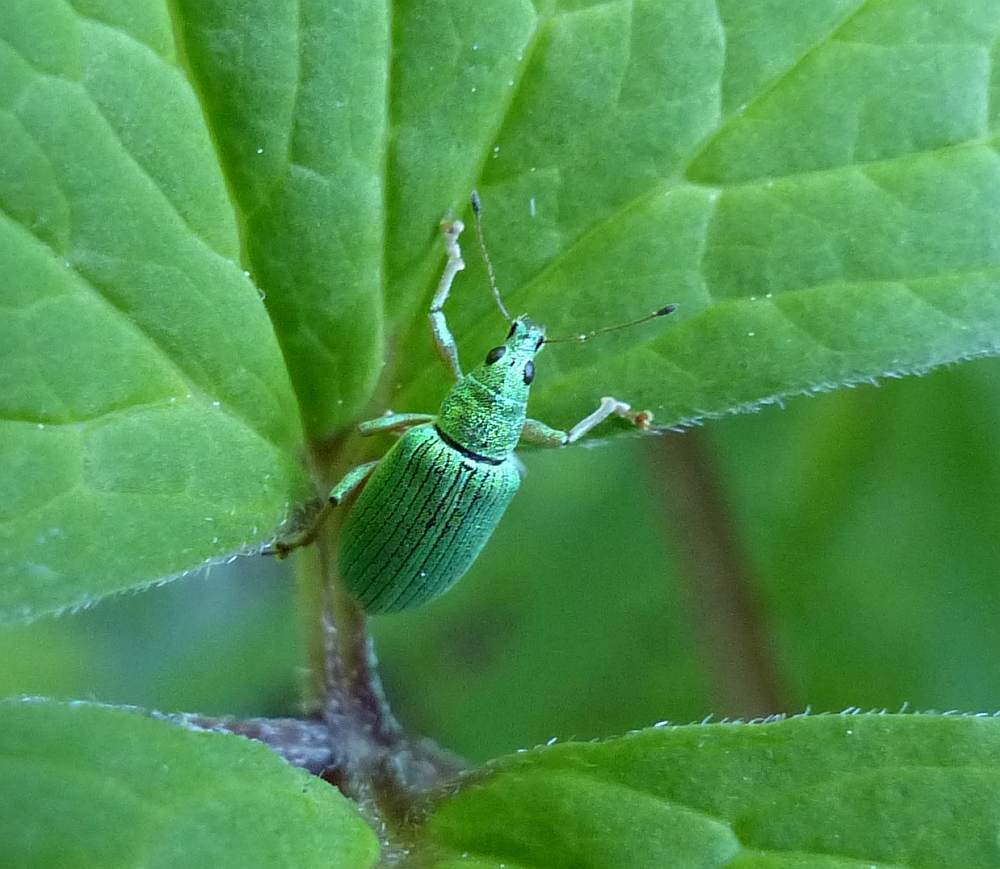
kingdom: Animalia
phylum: Arthropoda
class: Insecta
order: Coleoptera
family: Curculionidae
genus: Polydrusus
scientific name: Polydrusus formosus
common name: Weevil
